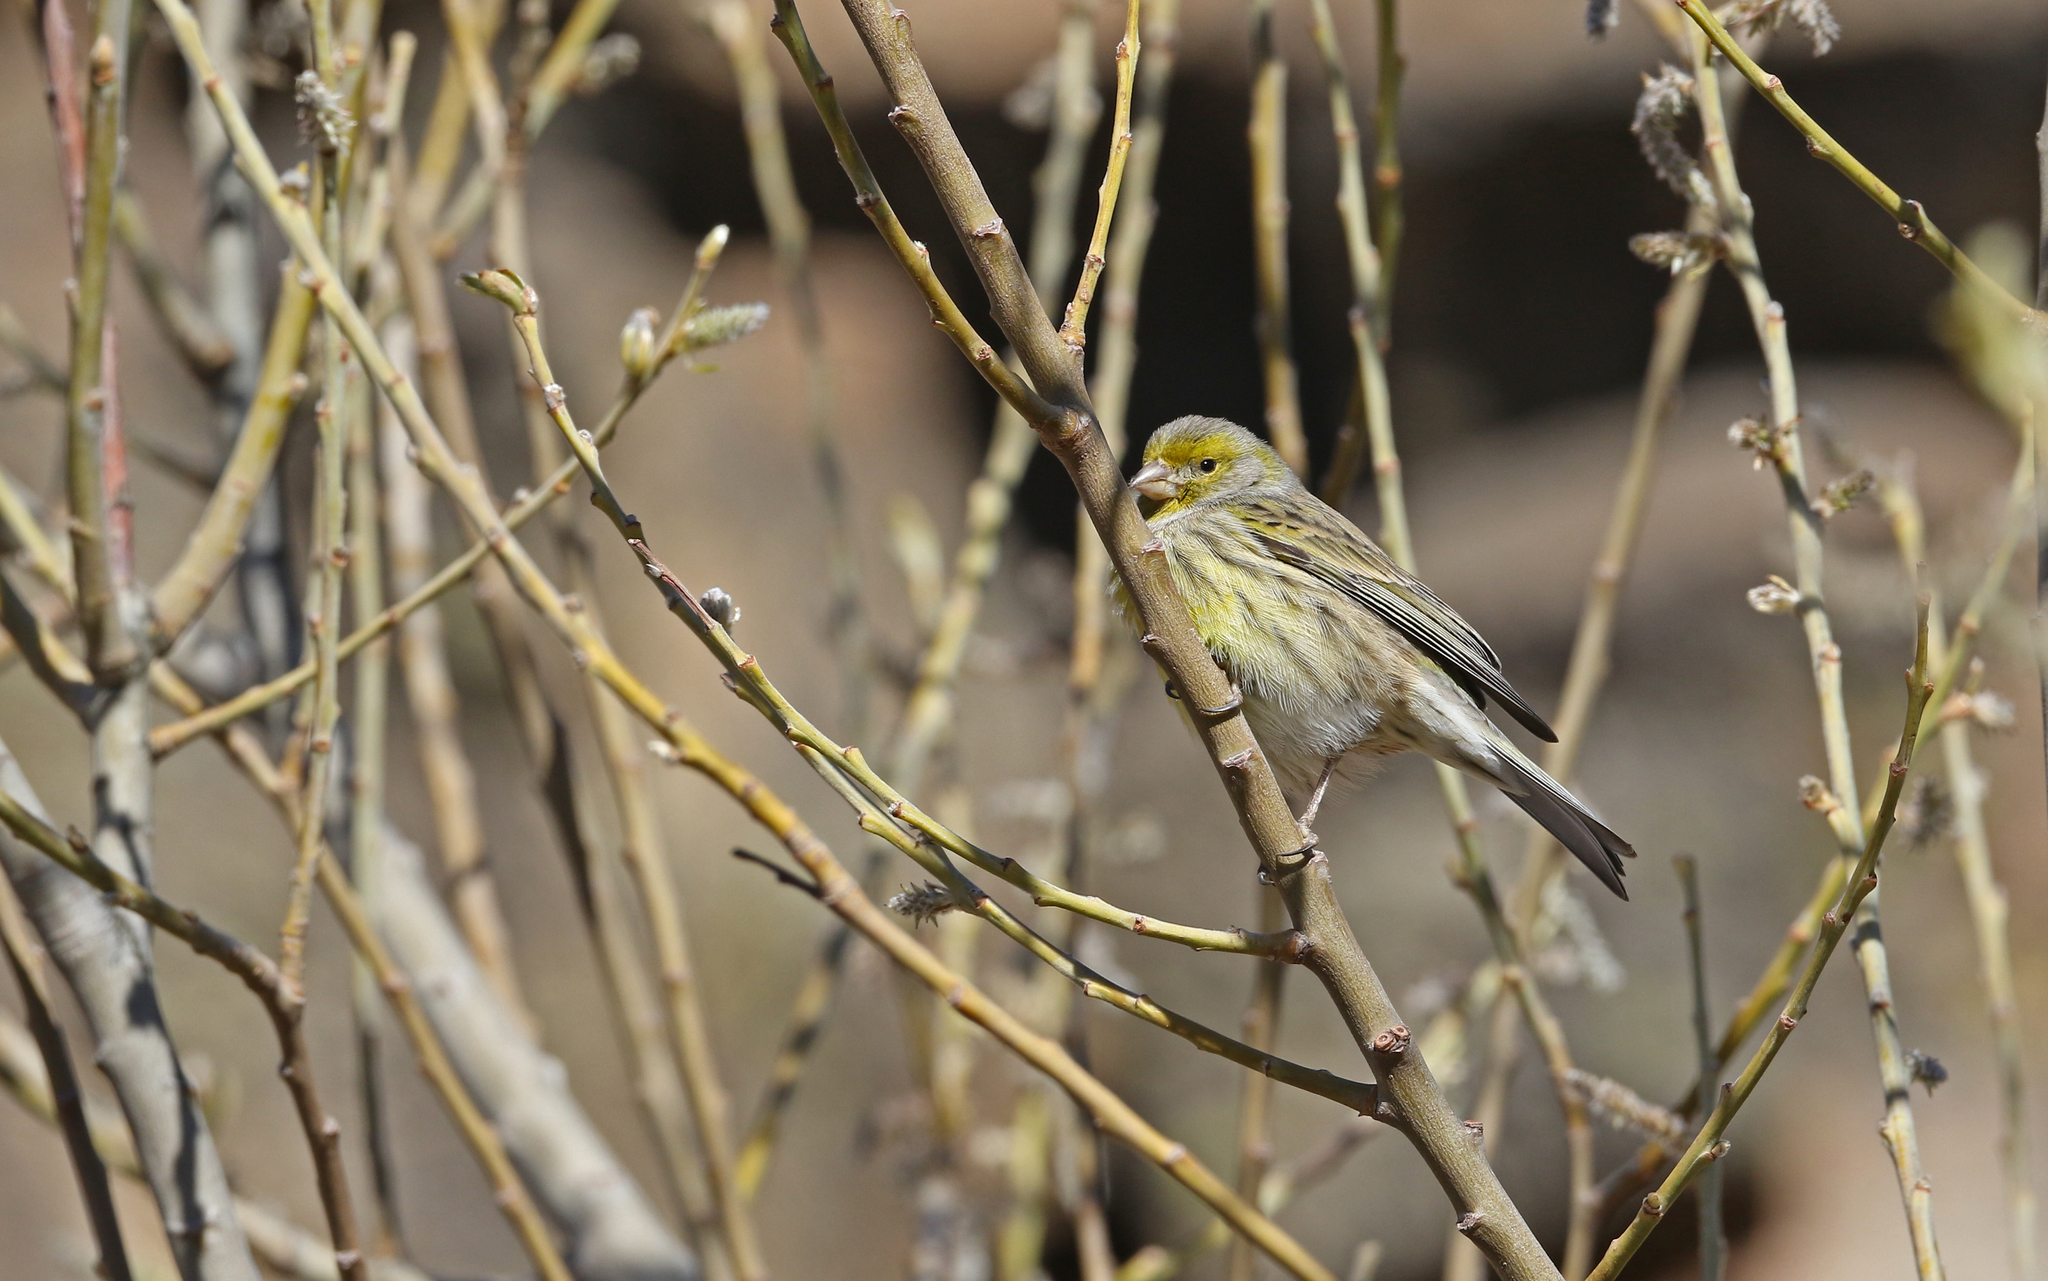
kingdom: Animalia
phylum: Chordata
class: Aves
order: Passeriformes
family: Fringillidae
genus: Serinus
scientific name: Serinus canaria
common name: Atlantic canary
